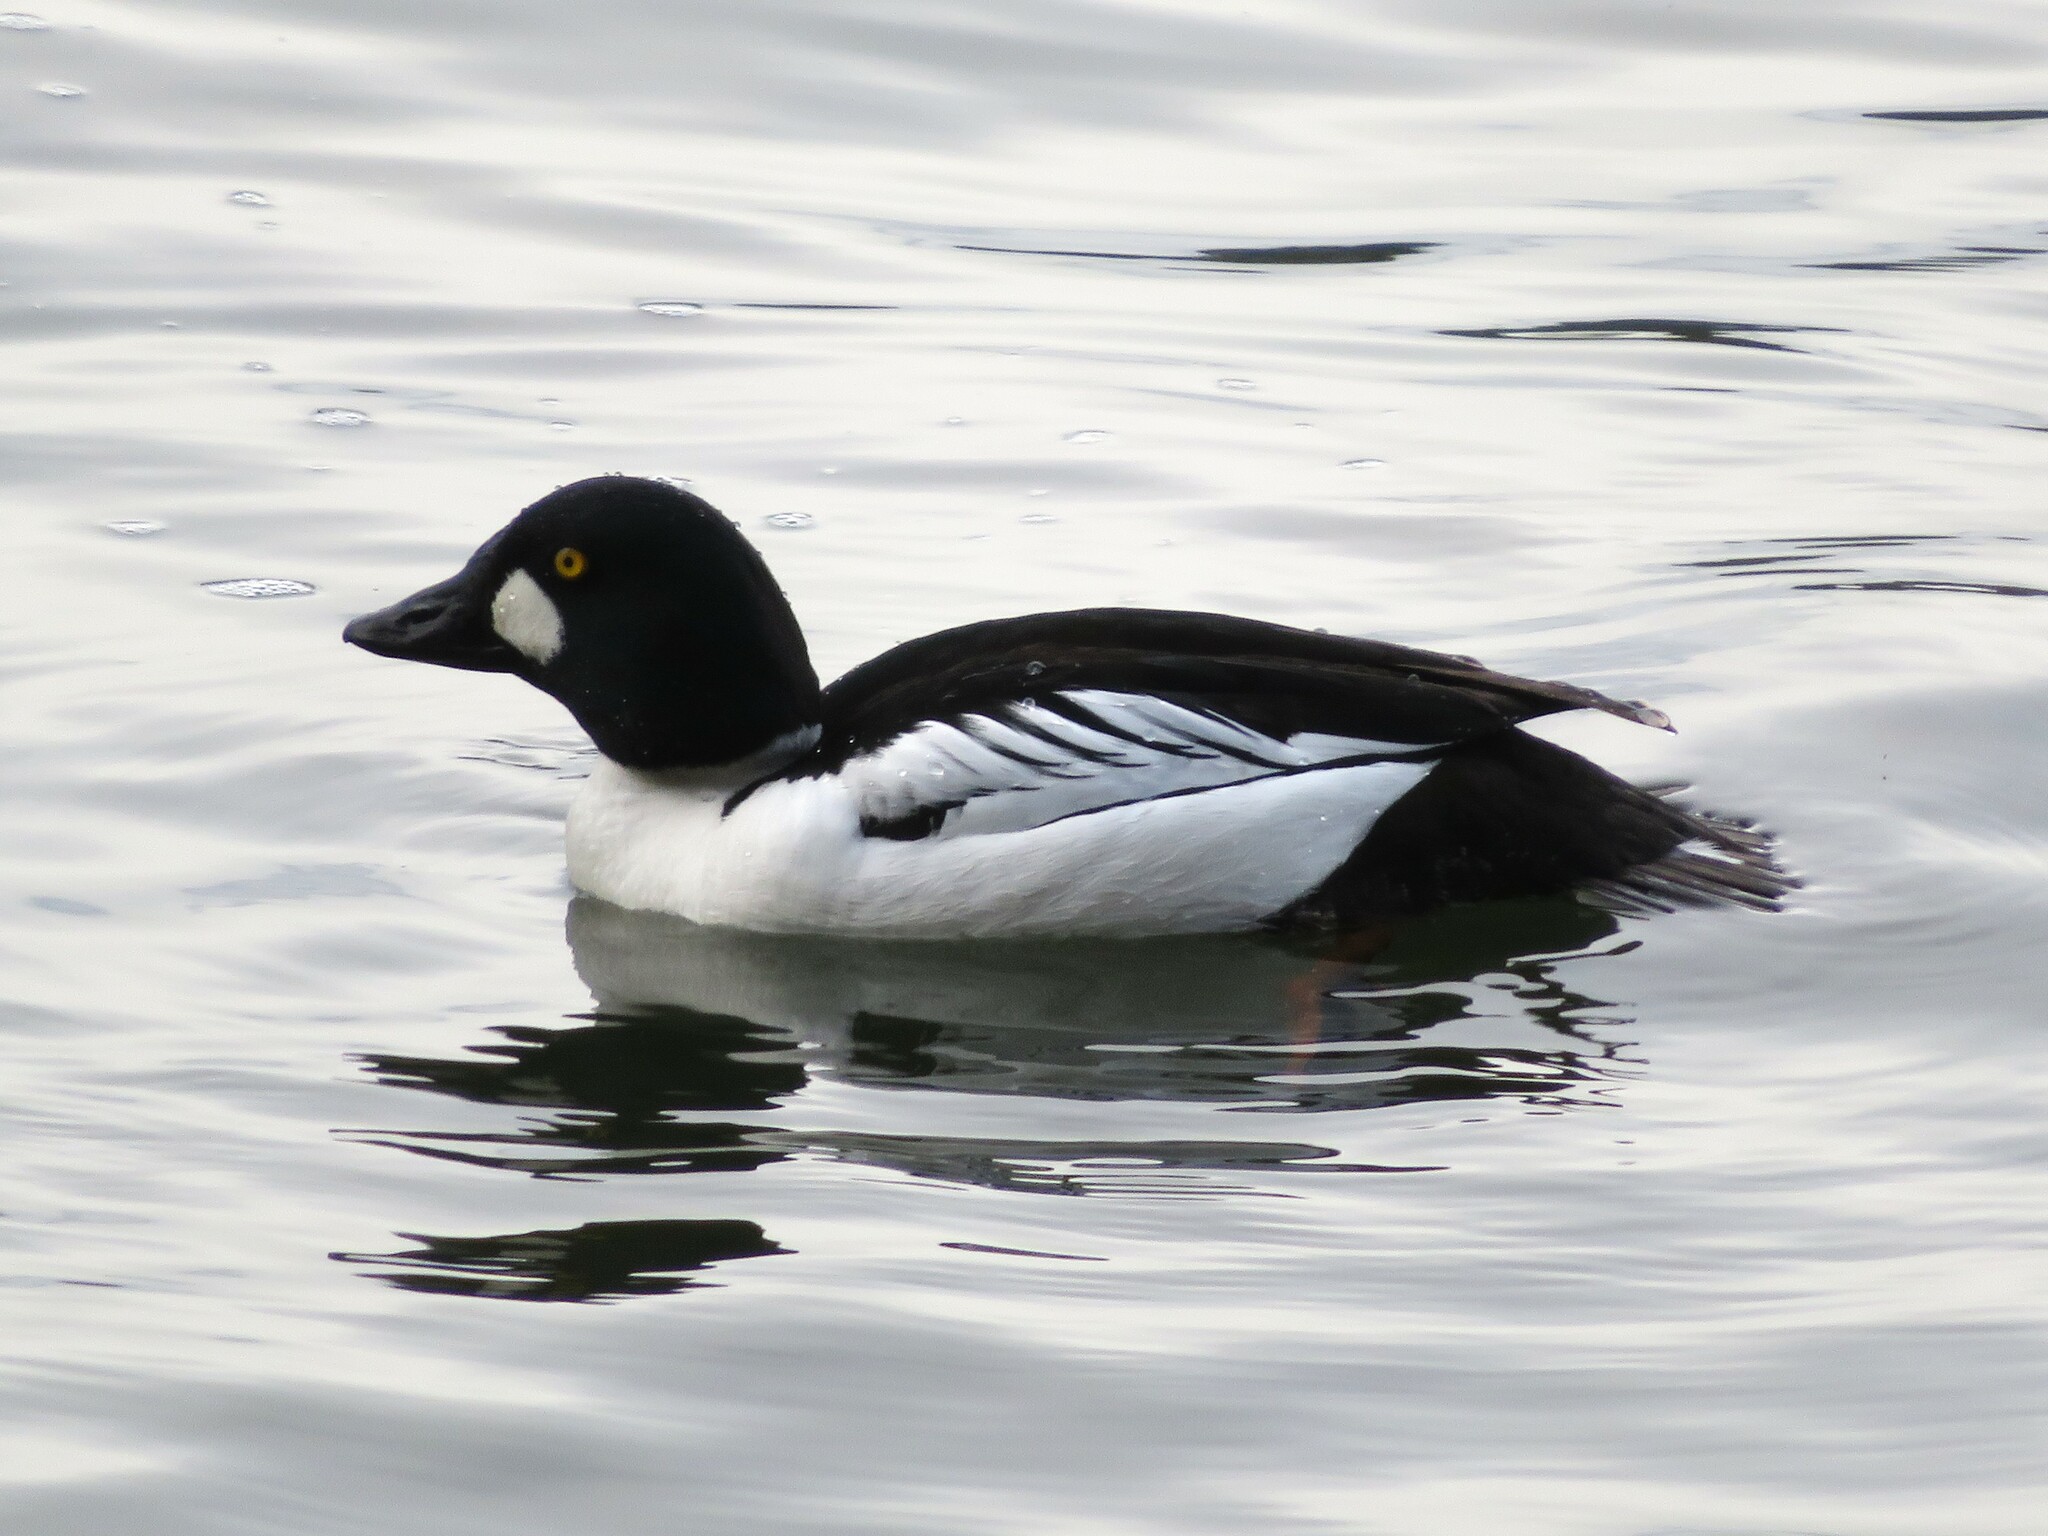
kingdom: Animalia
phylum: Chordata
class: Aves
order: Anseriformes
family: Anatidae
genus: Bucephala
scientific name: Bucephala clangula
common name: Common goldeneye
